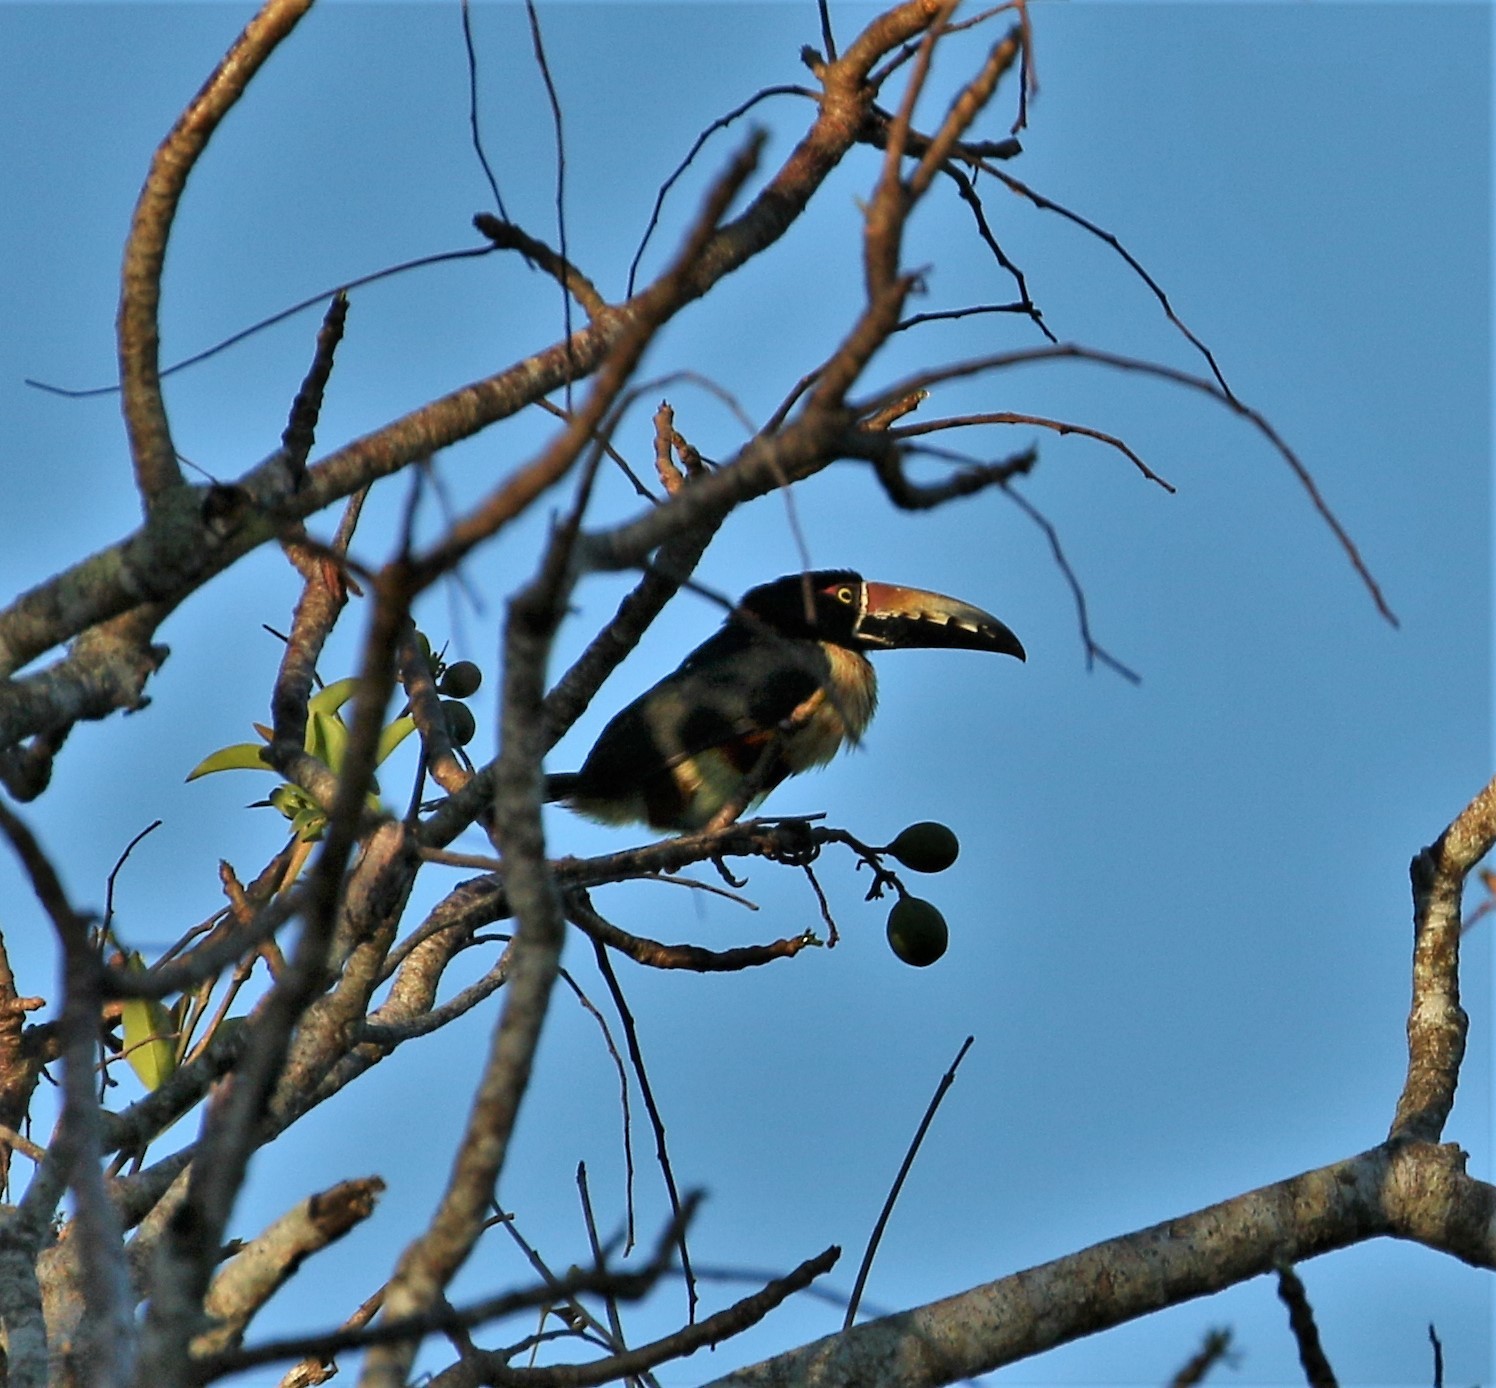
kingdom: Animalia
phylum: Chordata
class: Aves
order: Piciformes
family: Ramphastidae
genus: Pteroglossus
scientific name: Pteroglossus torquatus
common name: Collared aracari
